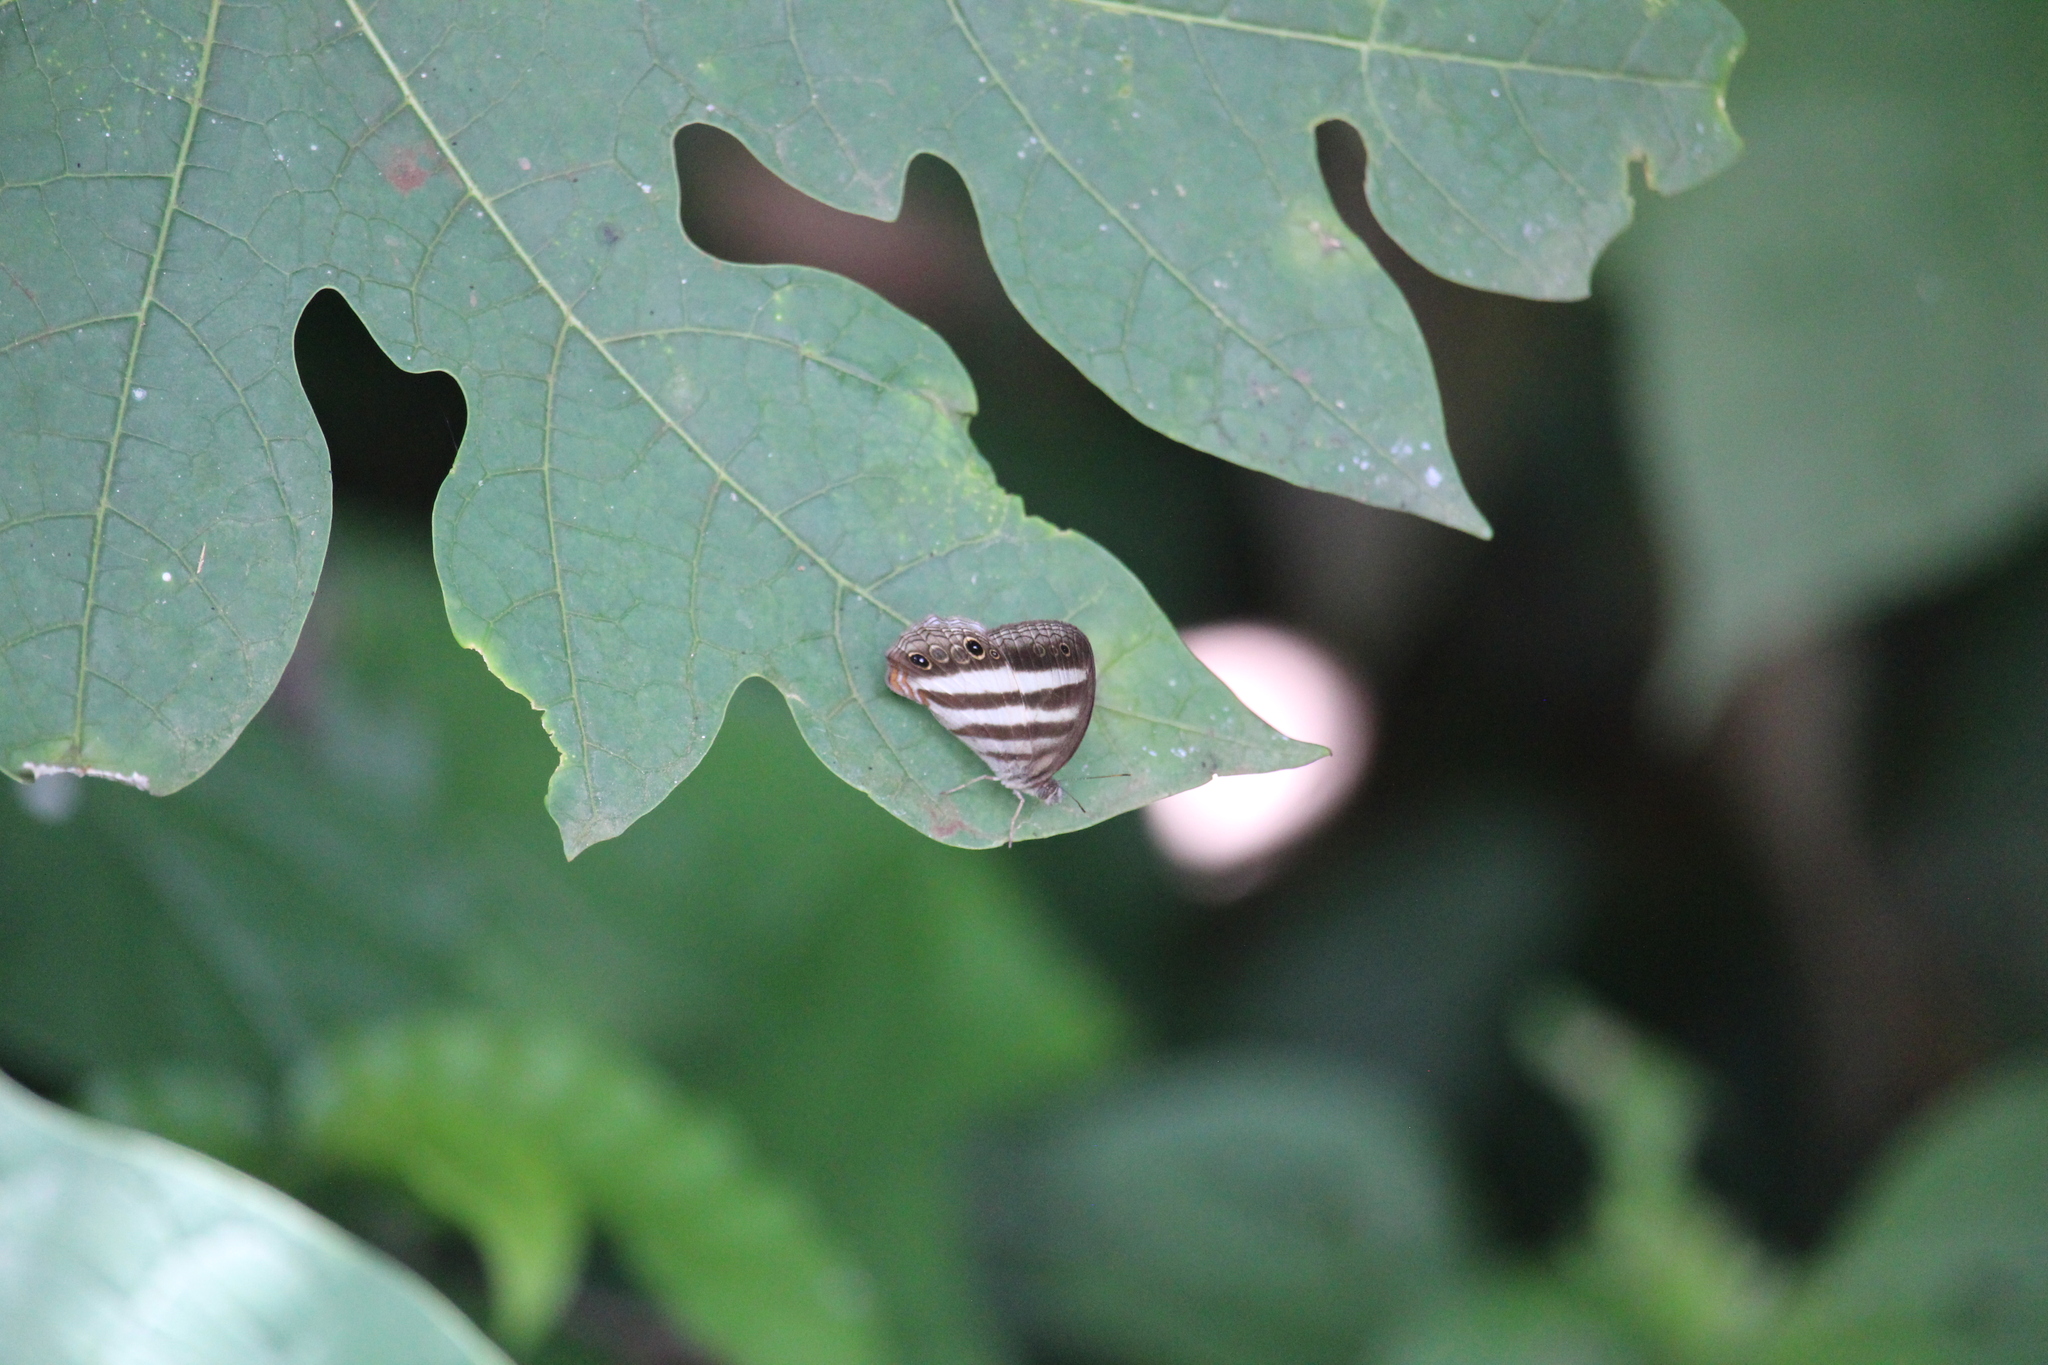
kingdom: Animalia
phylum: Arthropoda
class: Insecta
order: Lepidoptera
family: Nymphalidae
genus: Pareuptychia
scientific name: Pareuptychia hesione
